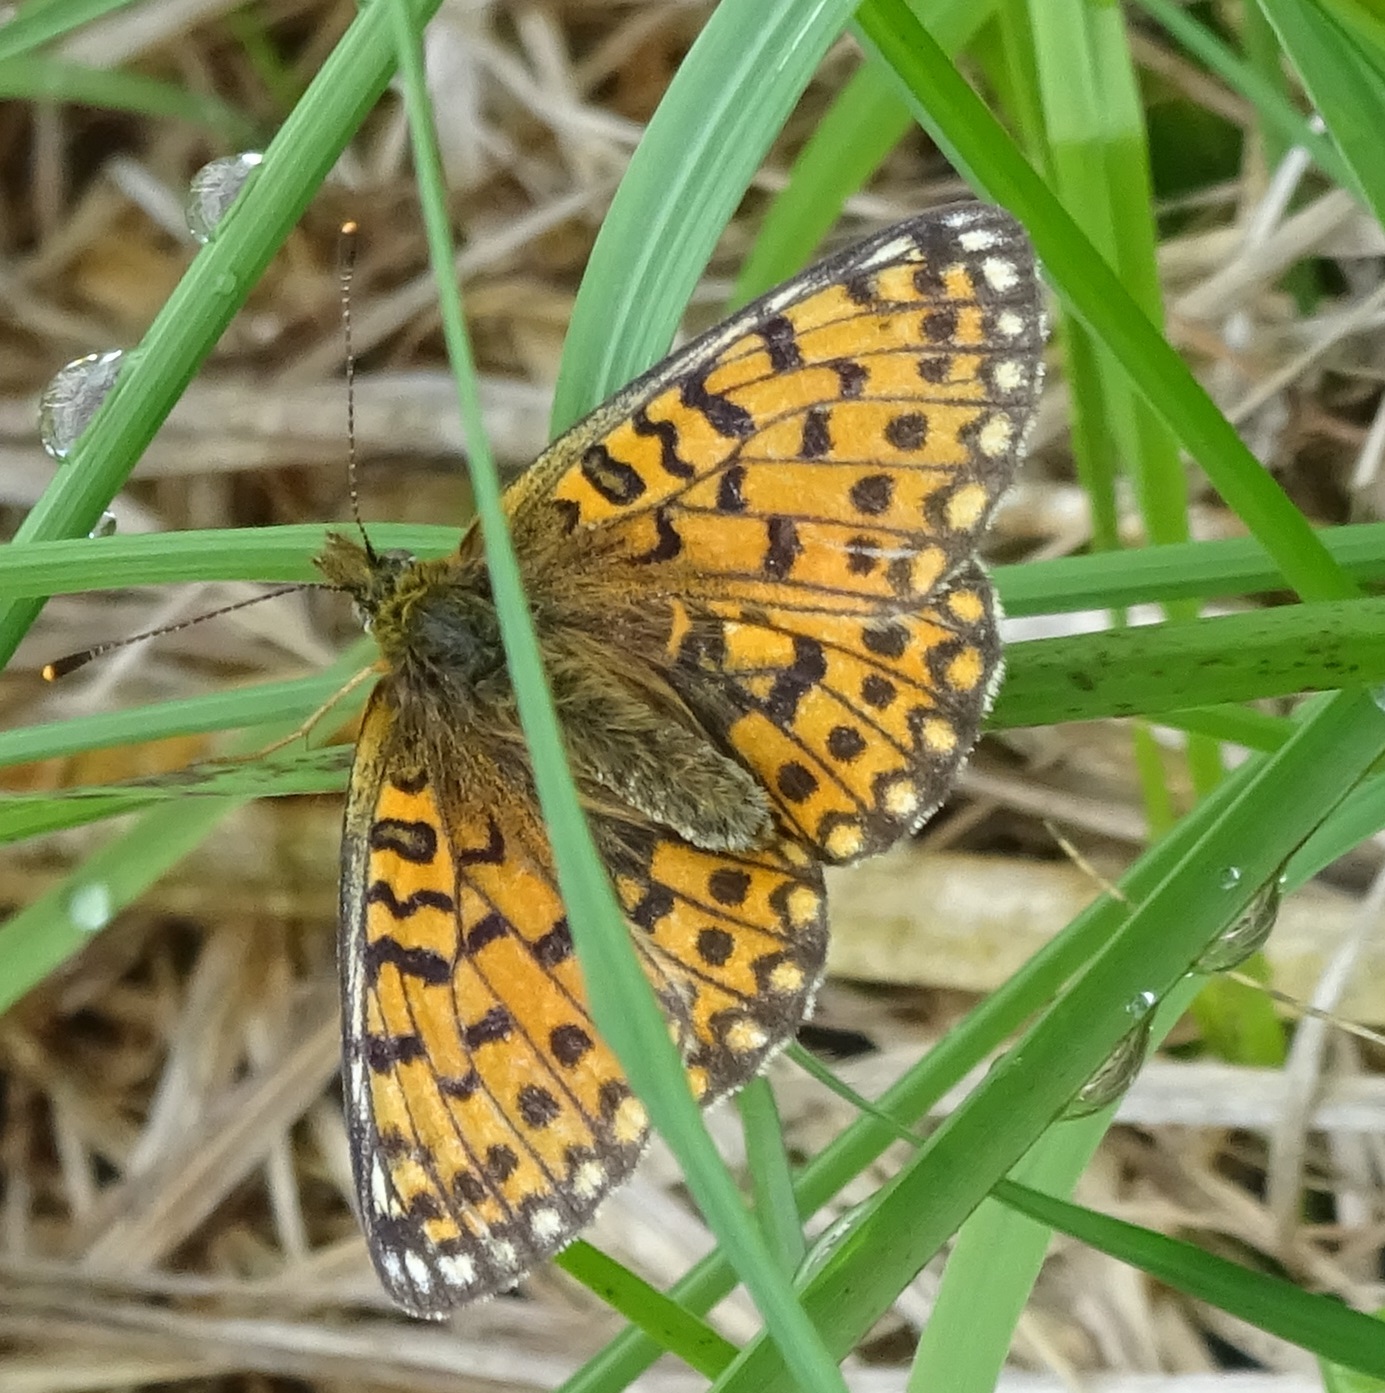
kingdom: Animalia
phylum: Arthropoda
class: Insecta
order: Lepidoptera
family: Nymphalidae
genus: Boloria
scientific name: Boloria selene
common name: Small pearl-bordered fritillary
